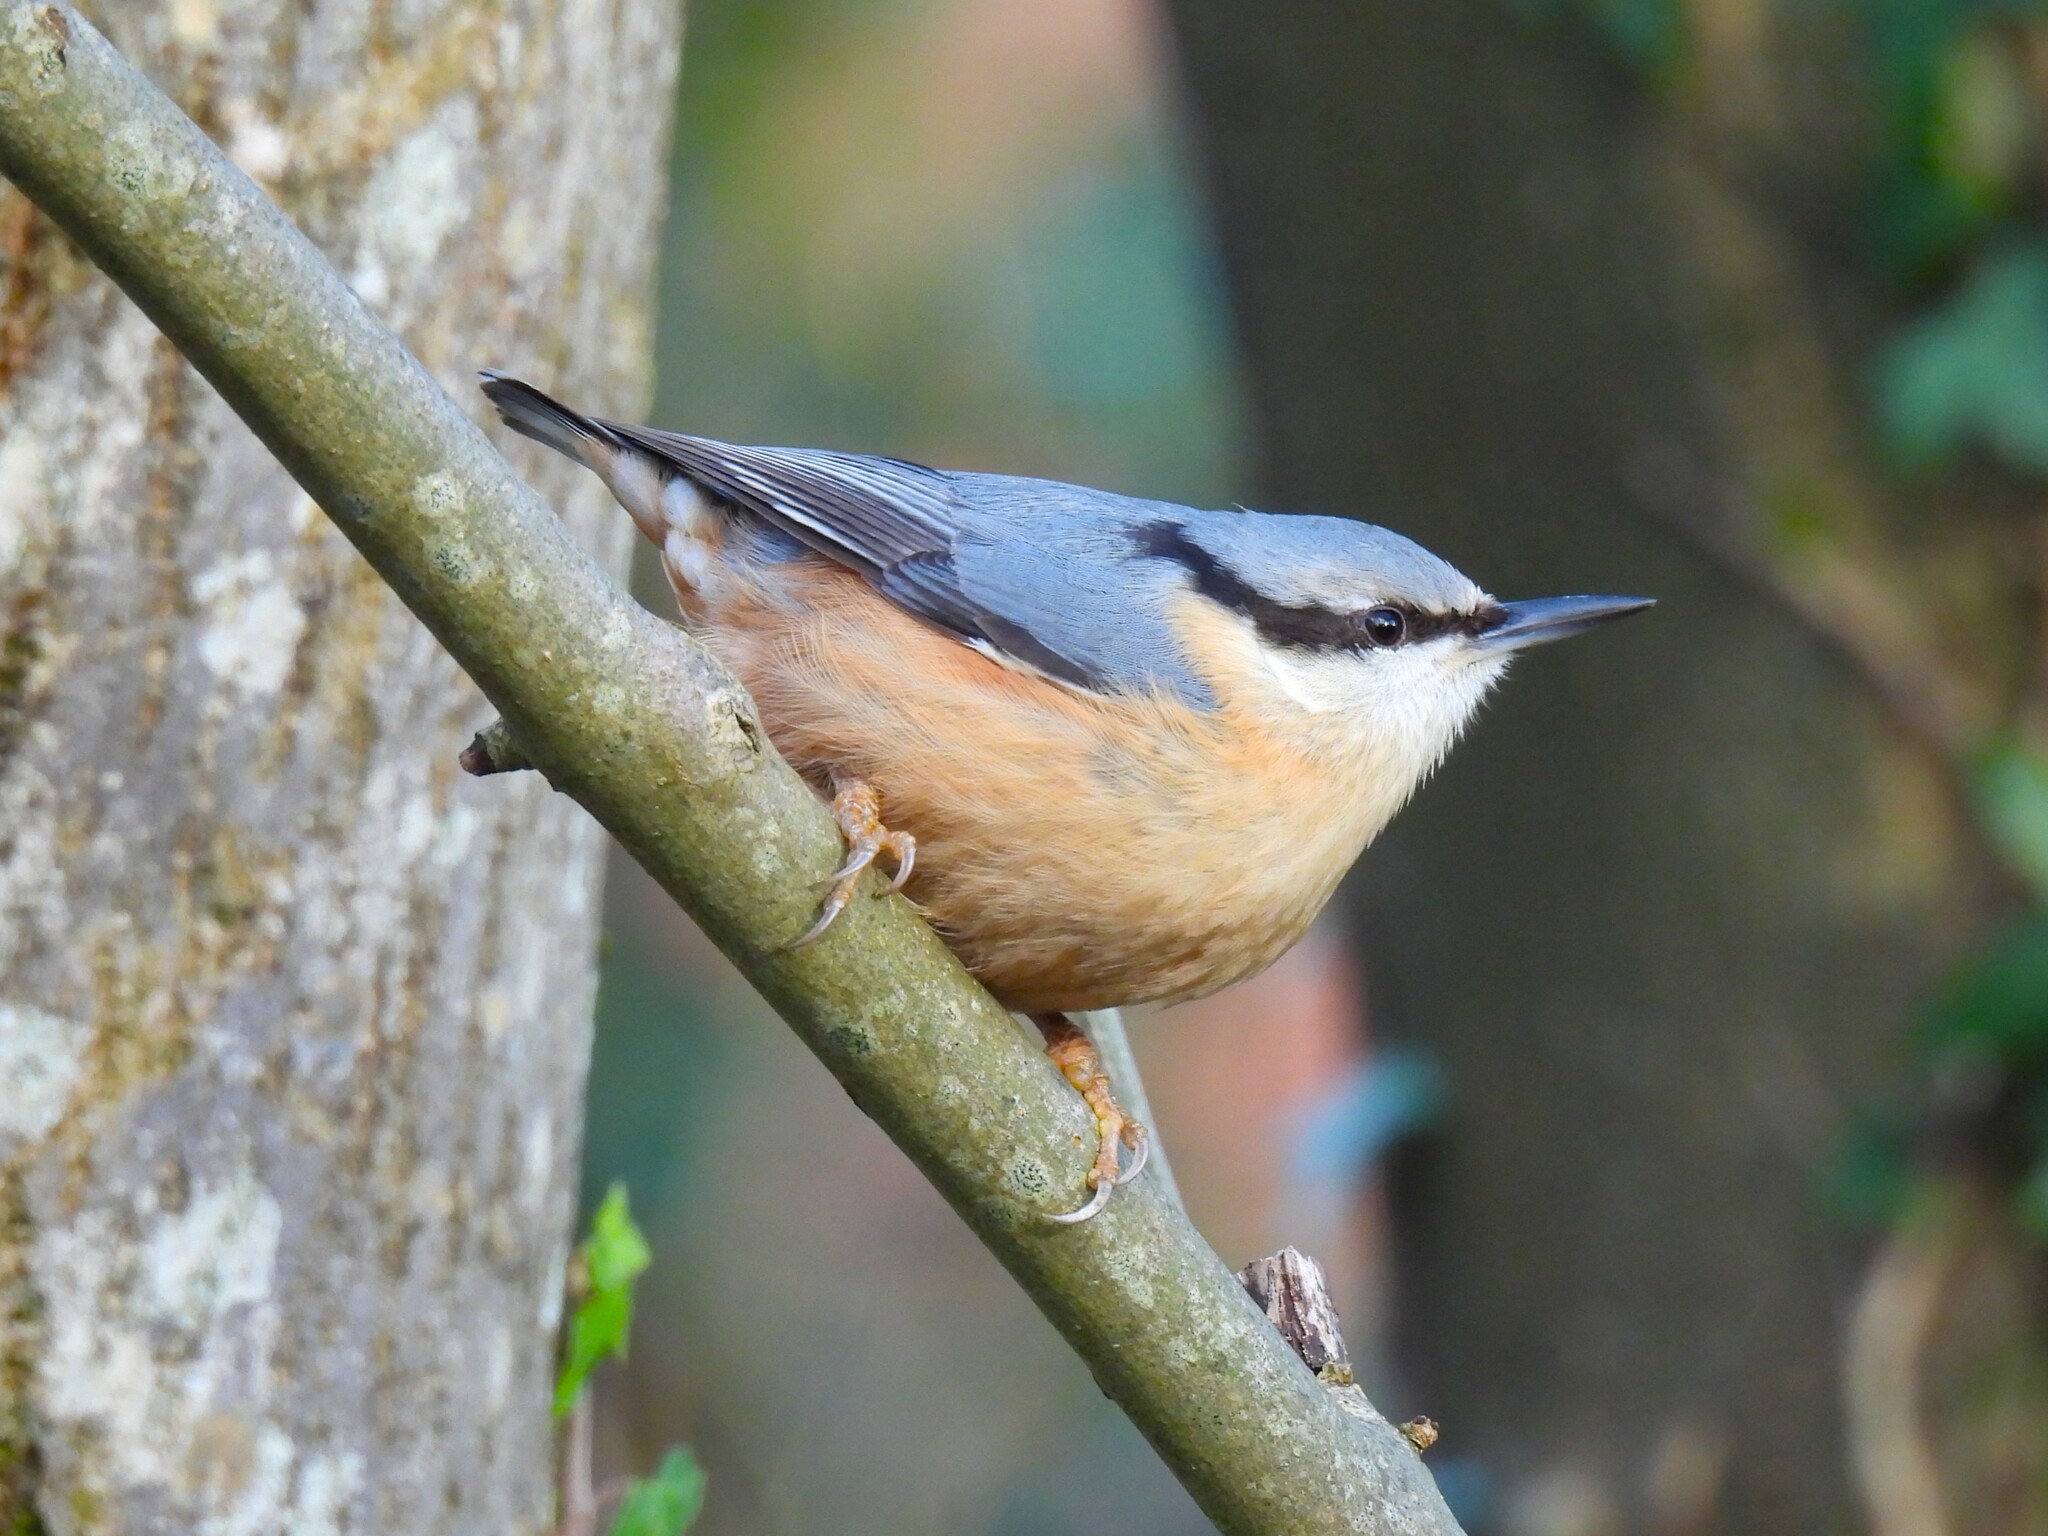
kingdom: Animalia
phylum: Chordata
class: Aves
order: Passeriformes
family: Sittidae
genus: Sitta
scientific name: Sitta europaea
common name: Eurasian nuthatch
